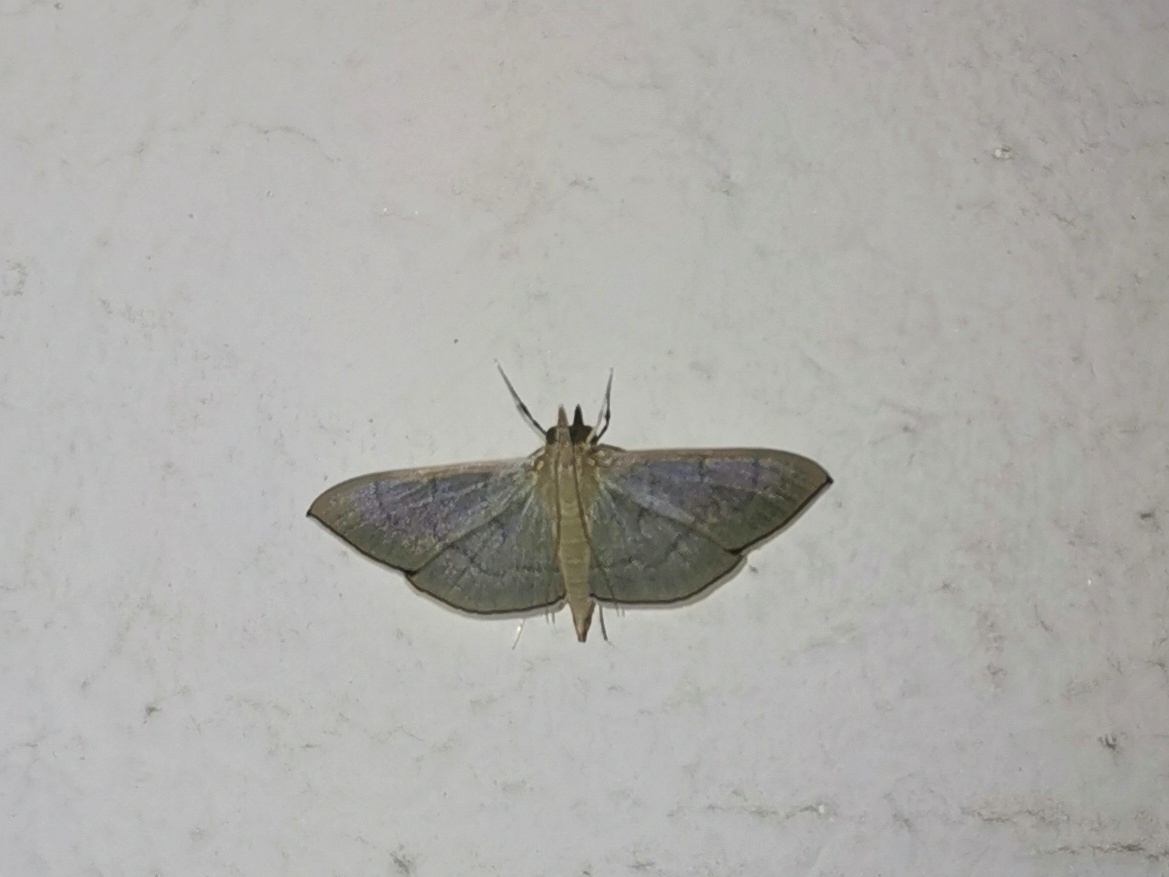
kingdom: Animalia
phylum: Arthropoda
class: Insecta
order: Lepidoptera
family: Crambidae
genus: Lamprophaia
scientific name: Lamprophaia ablactalis
